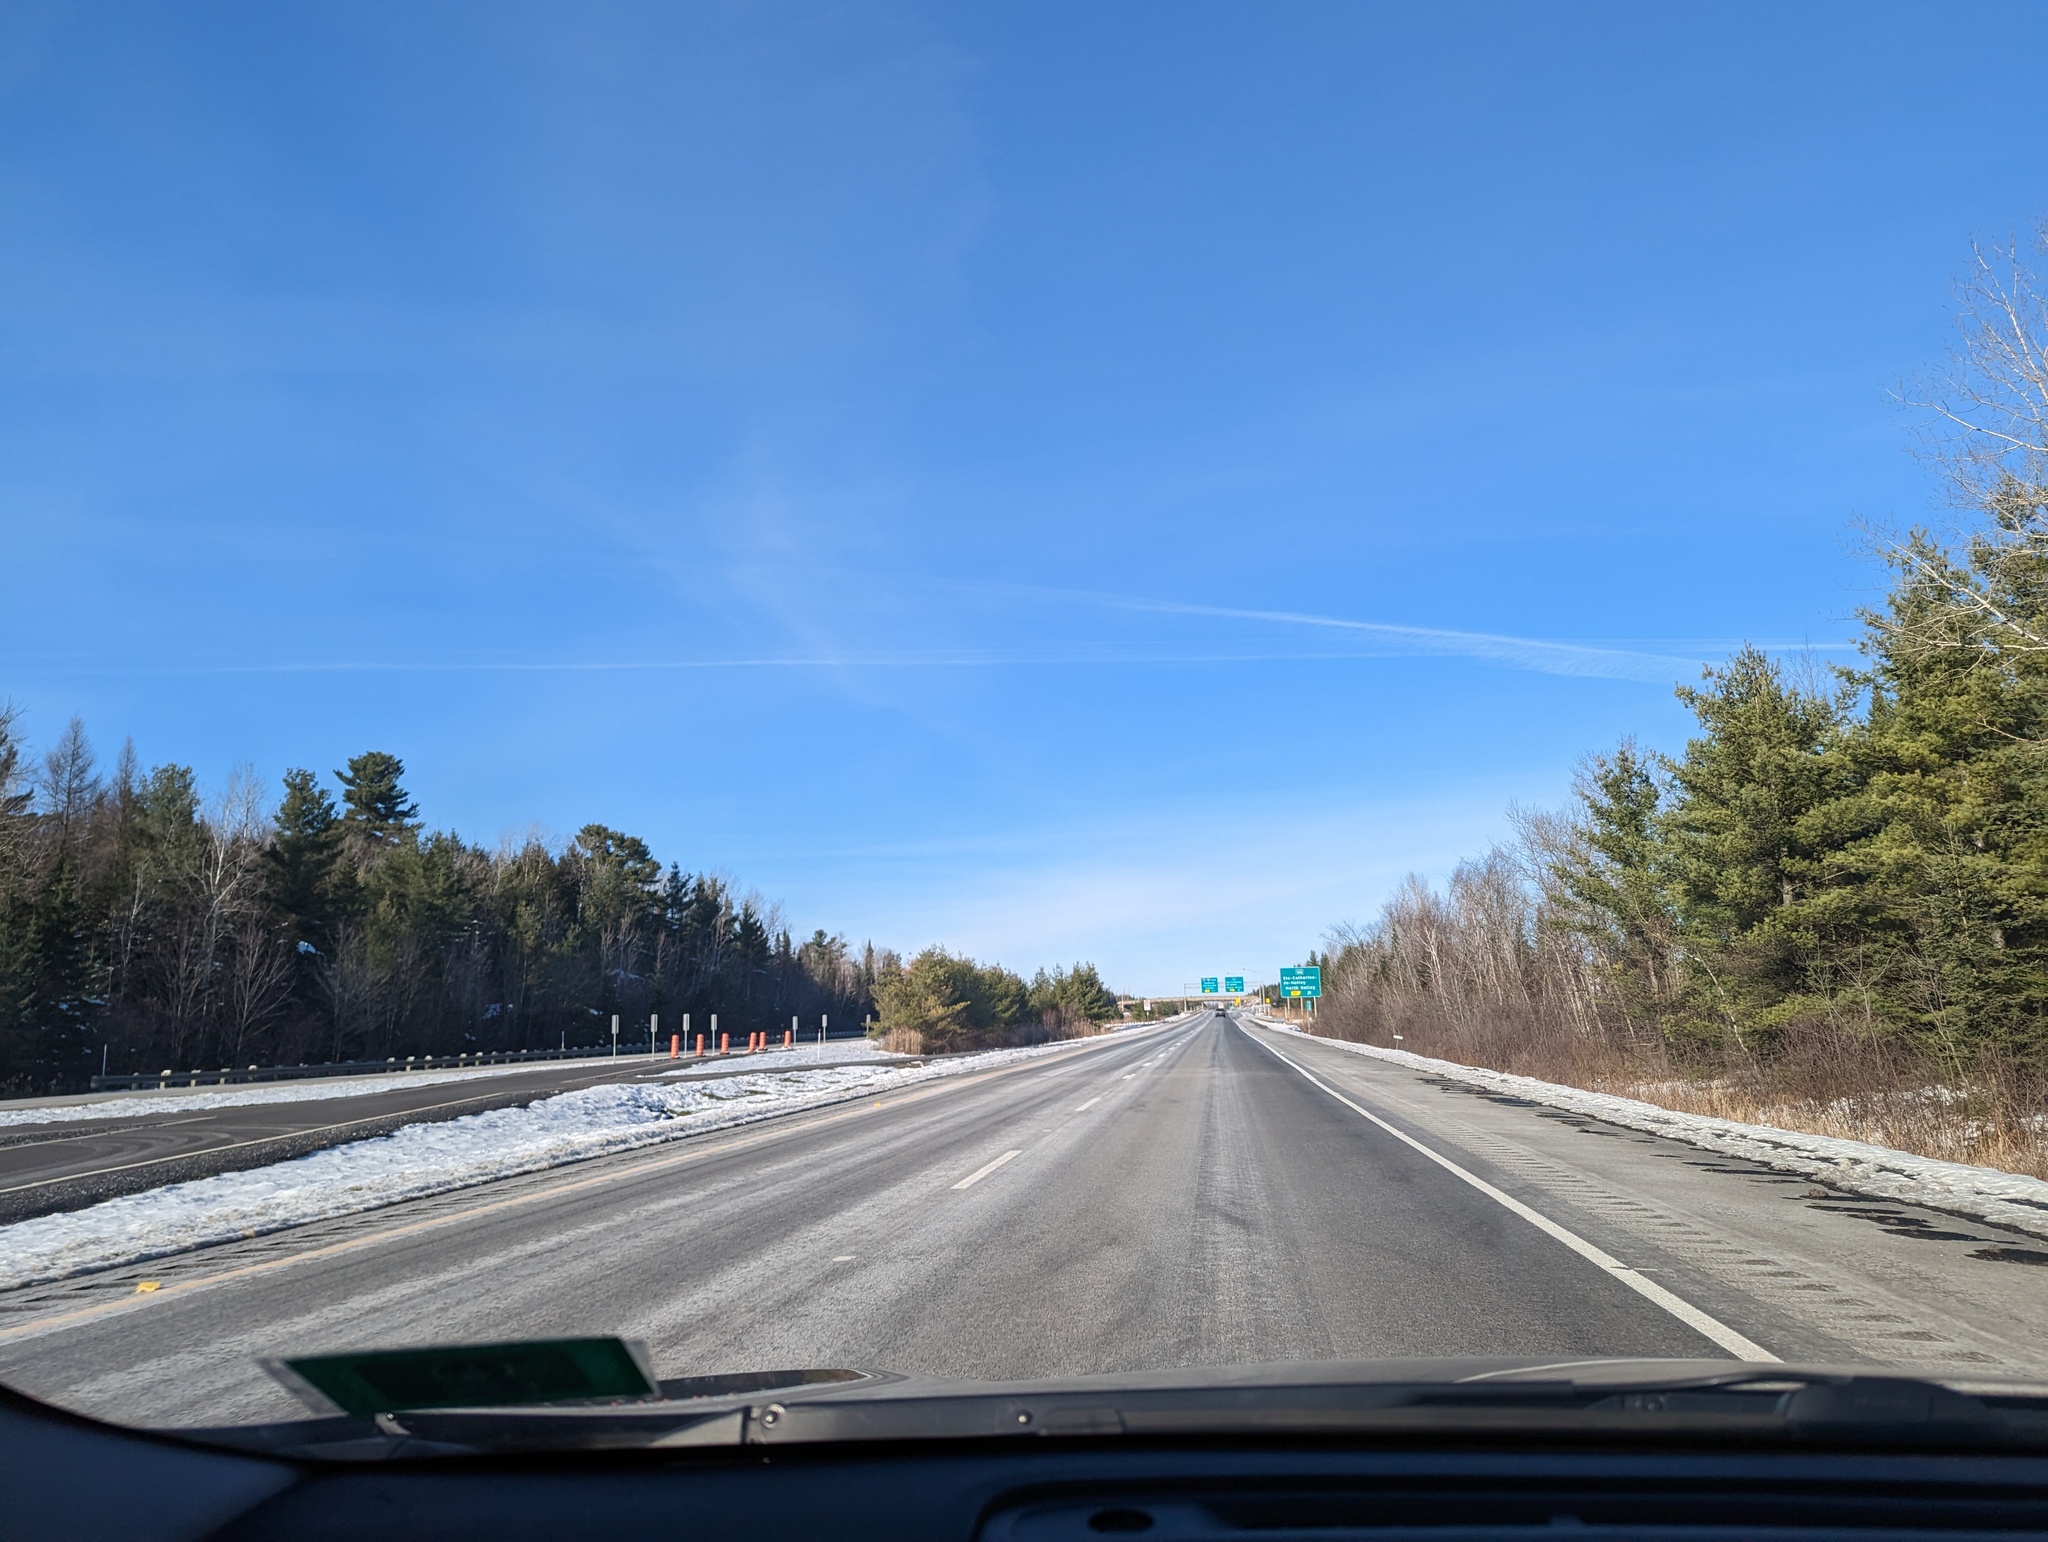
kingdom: Plantae
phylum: Tracheophyta
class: Pinopsida
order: Pinales
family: Pinaceae
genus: Pinus
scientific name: Pinus strobus
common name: Weymouth pine
